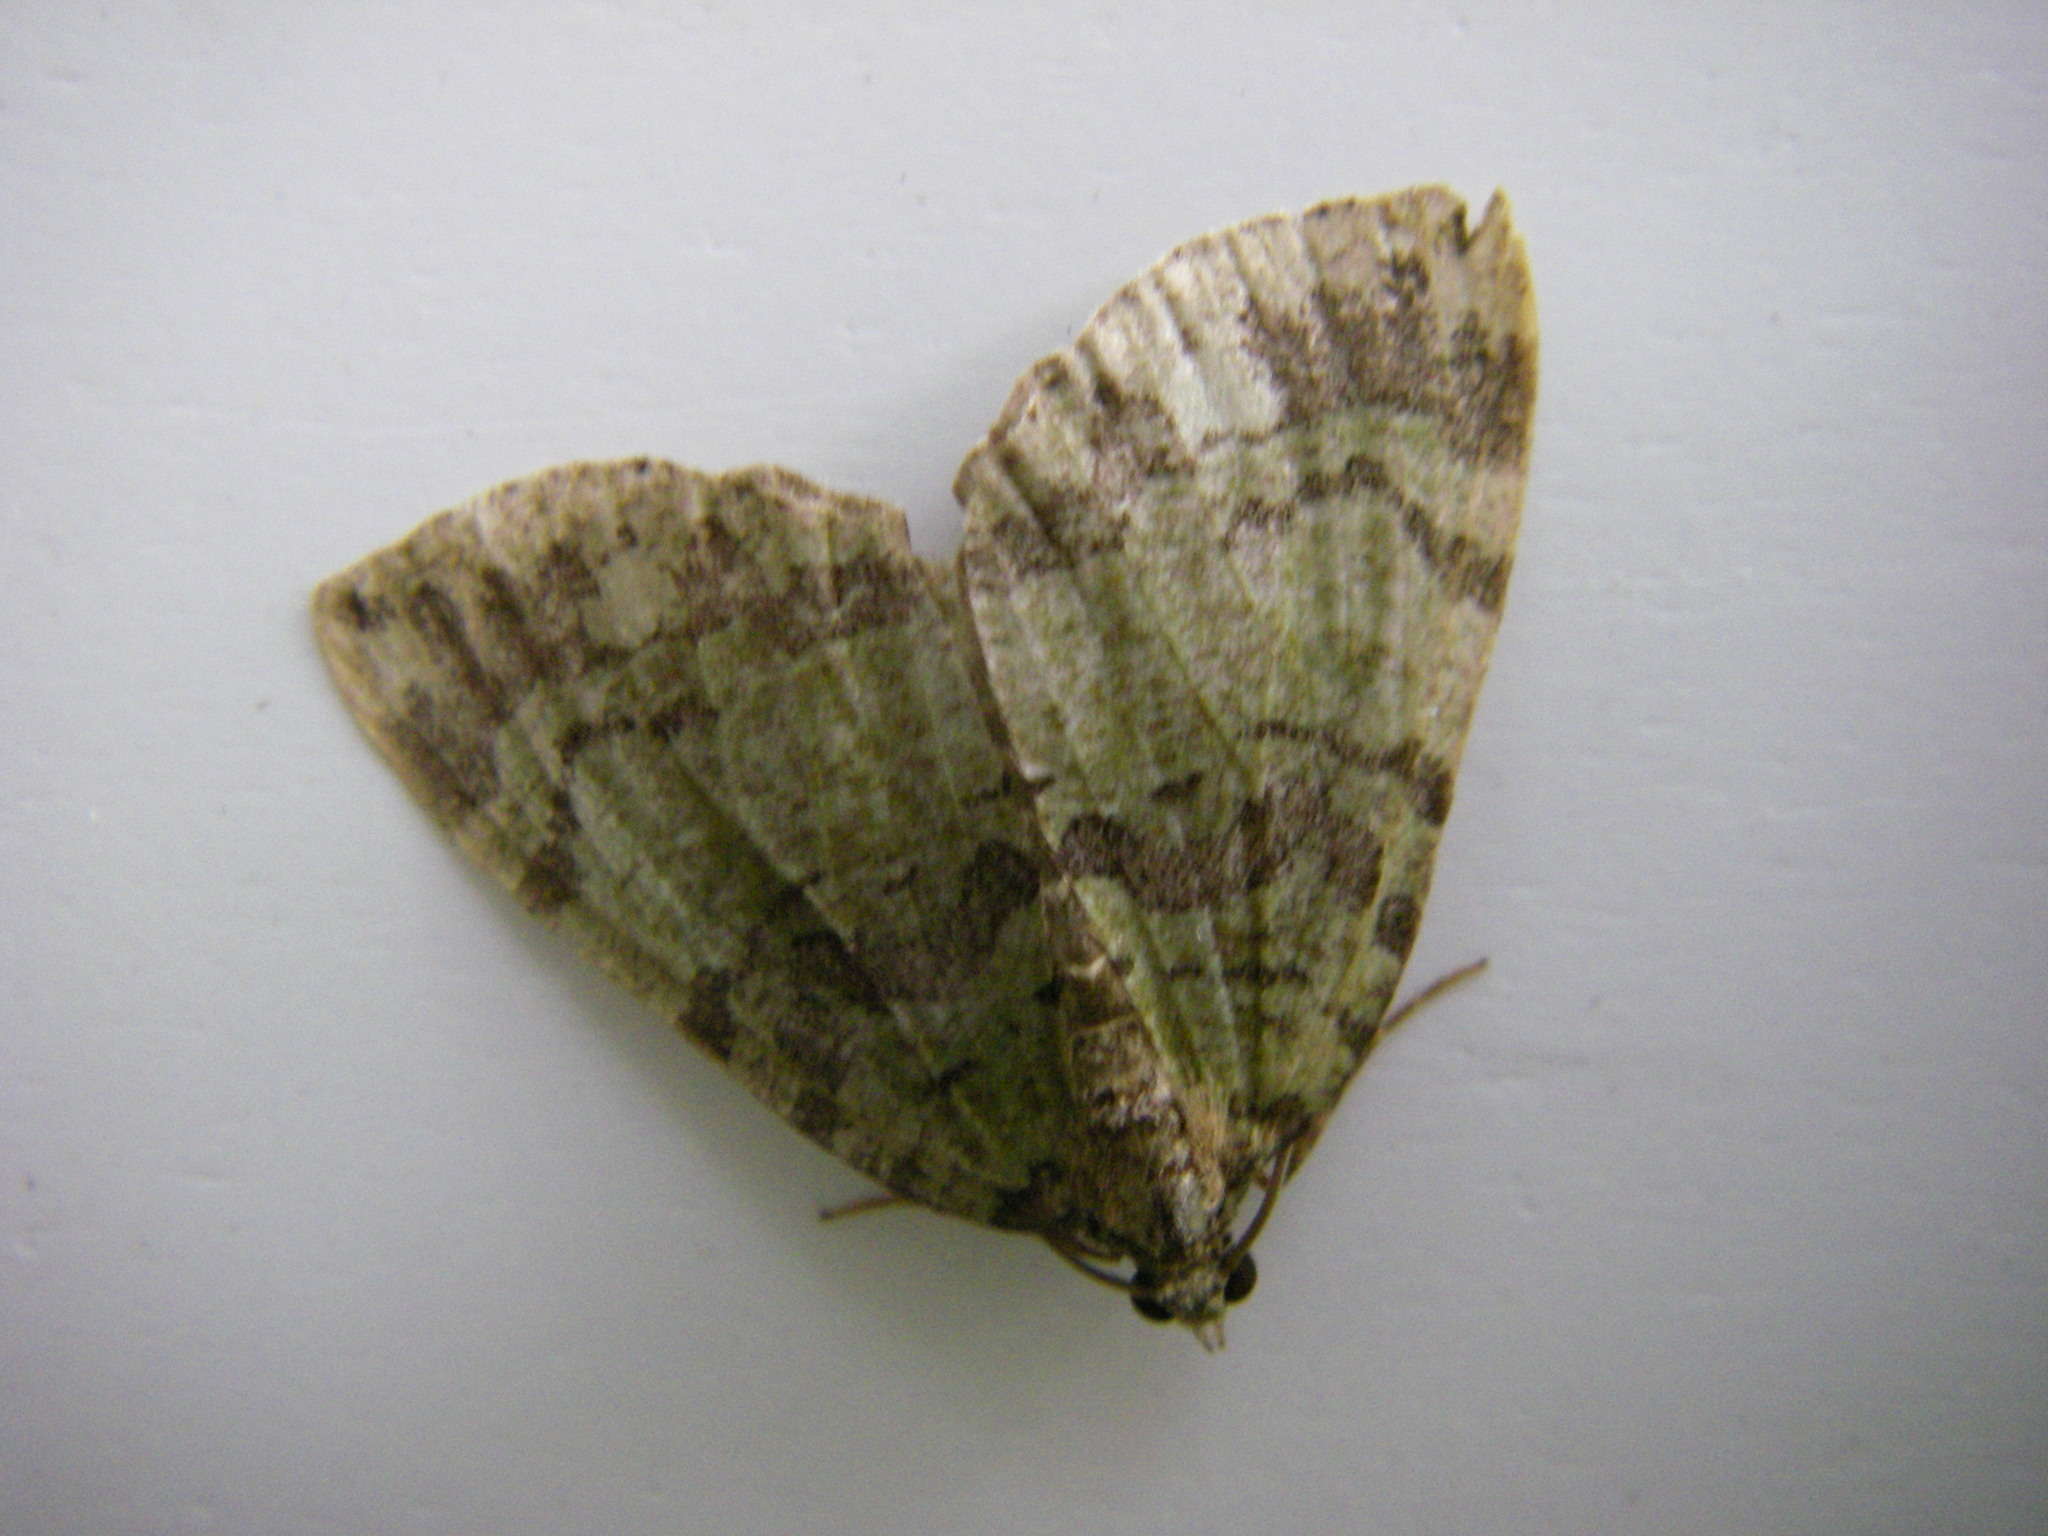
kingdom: Animalia
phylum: Arthropoda
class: Insecta
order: Lepidoptera
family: Geometridae
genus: Hydriomena
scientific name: Hydriomena furcata
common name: July highflyer
